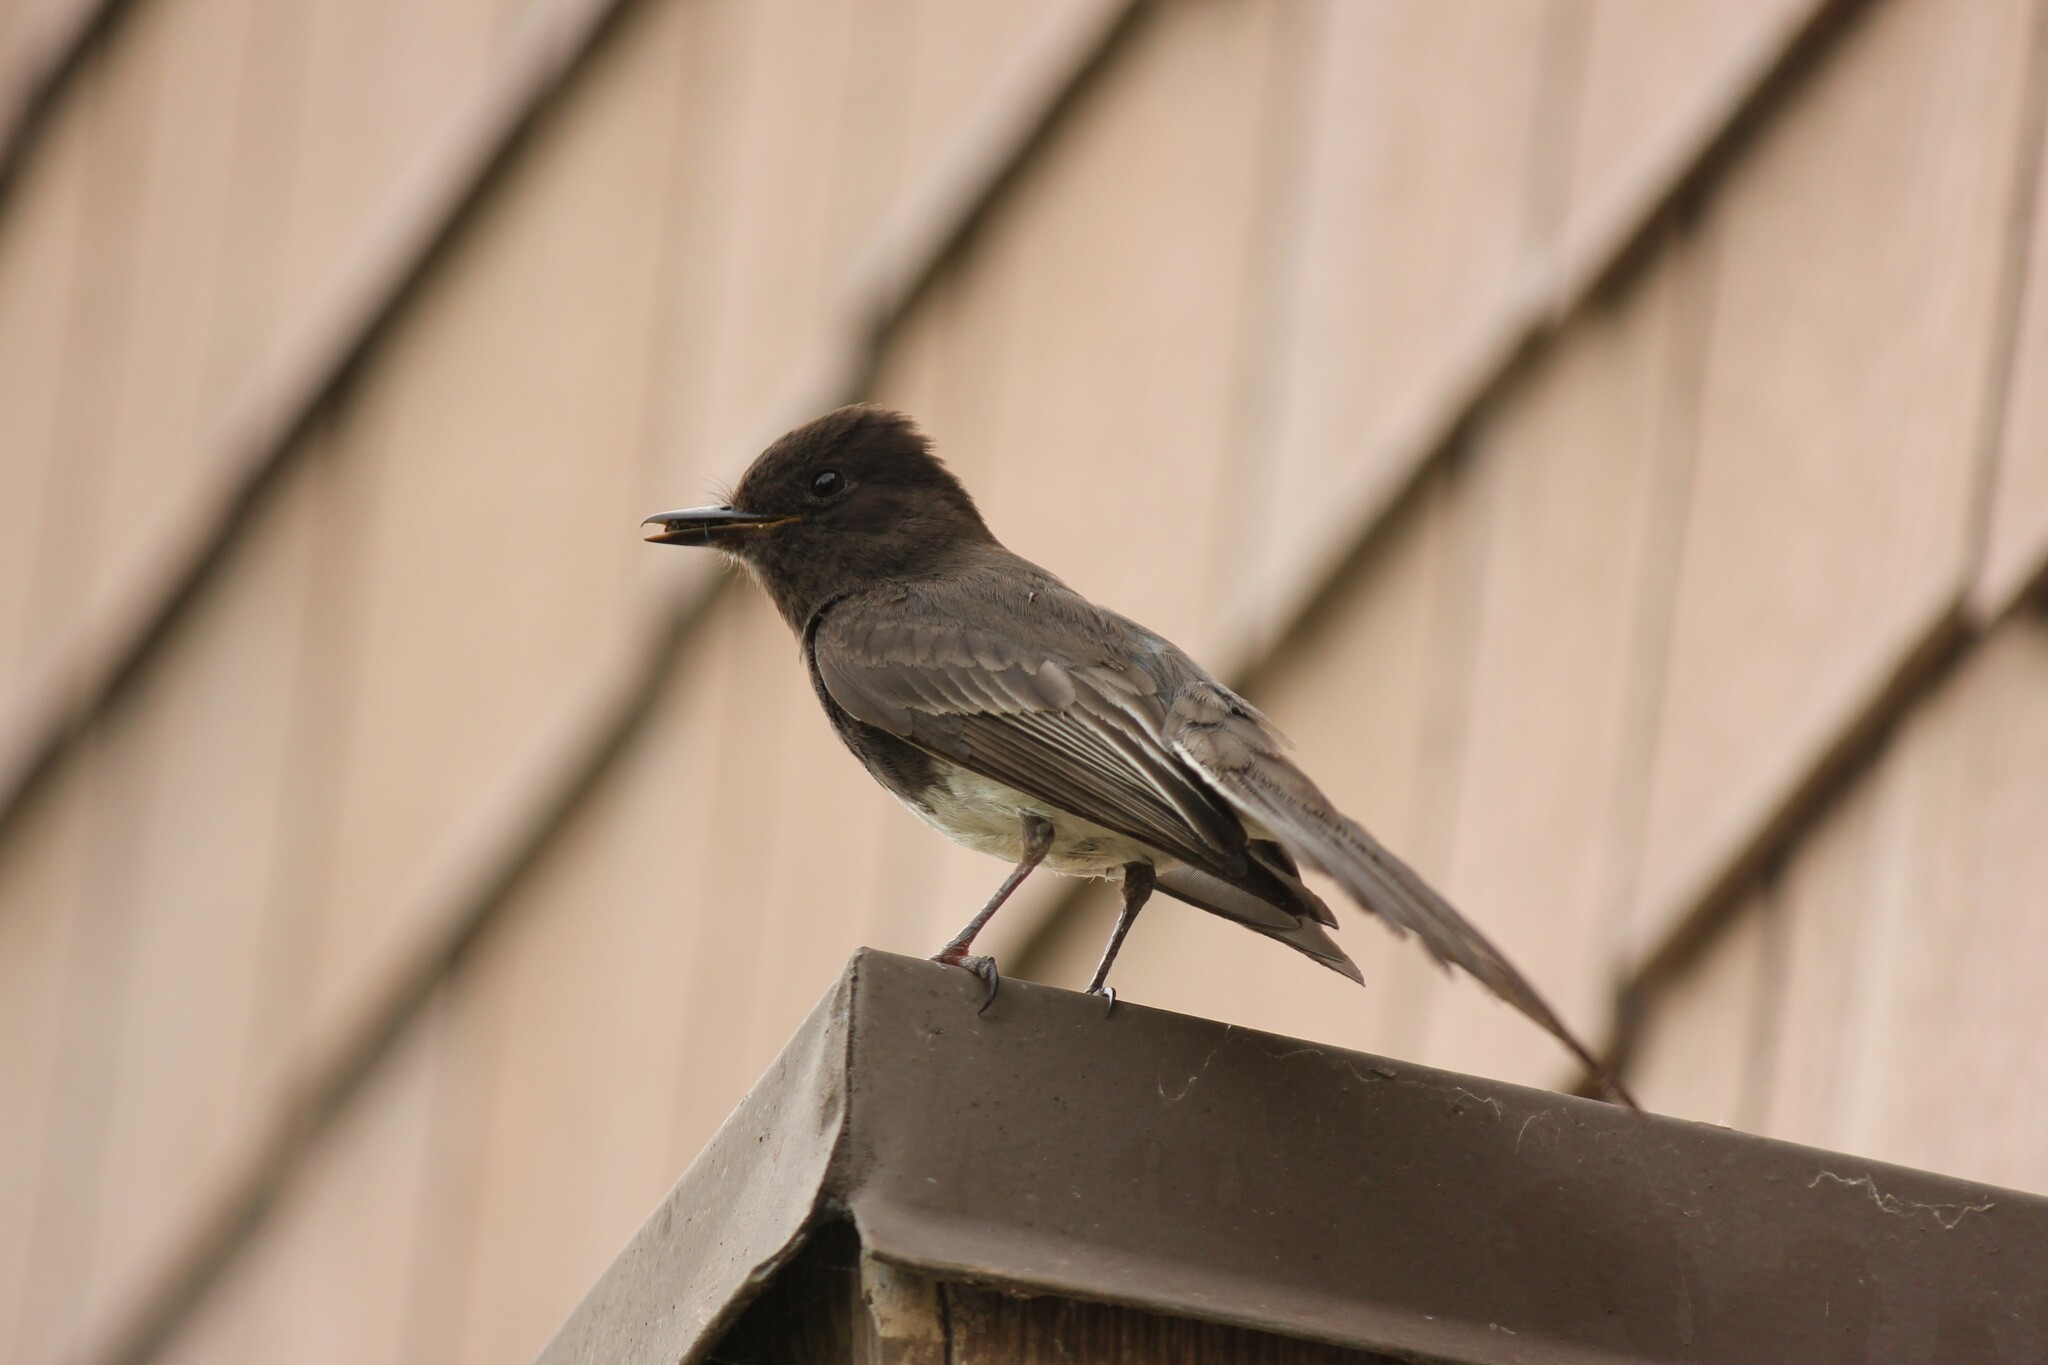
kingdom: Animalia
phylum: Chordata
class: Aves
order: Passeriformes
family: Tyrannidae
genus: Sayornis
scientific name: Sayornis nigricans
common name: Black phoebe
